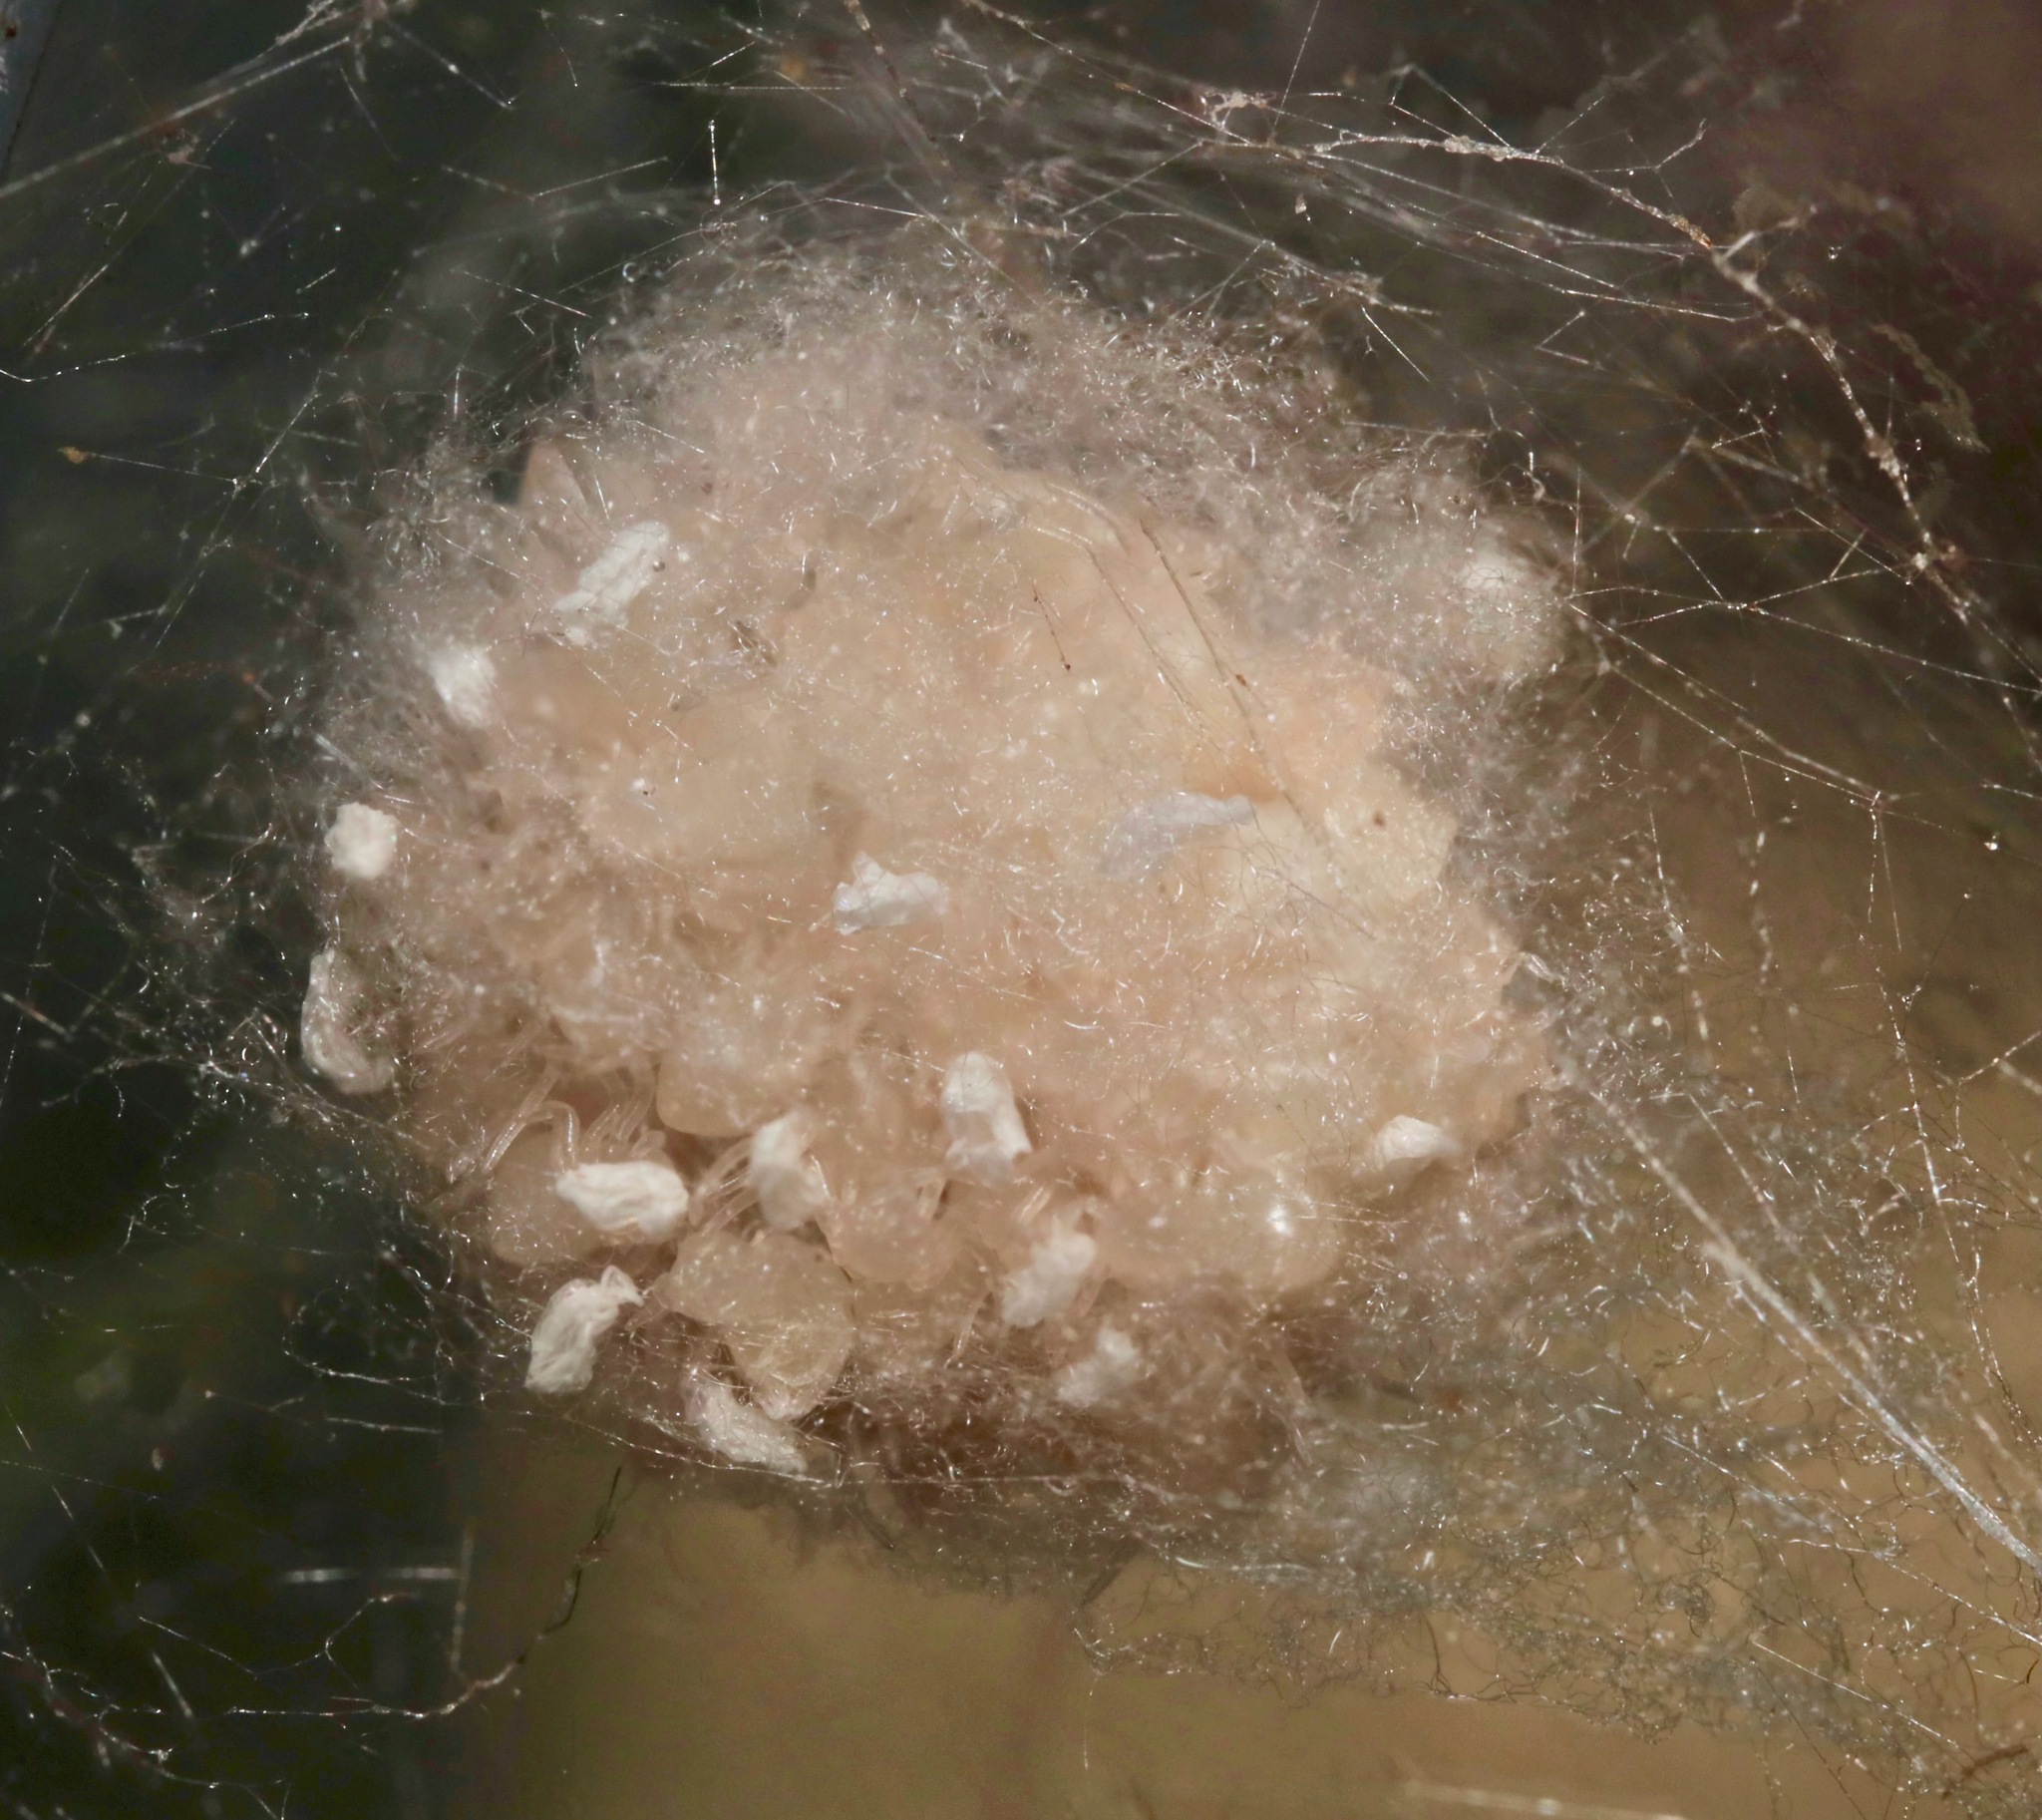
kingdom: Animalia
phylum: Arthropoda
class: Arachnida
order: Araneae
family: Theridiidae
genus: Steatoda
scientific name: Steatoda borealis
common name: Boreal combfoot
